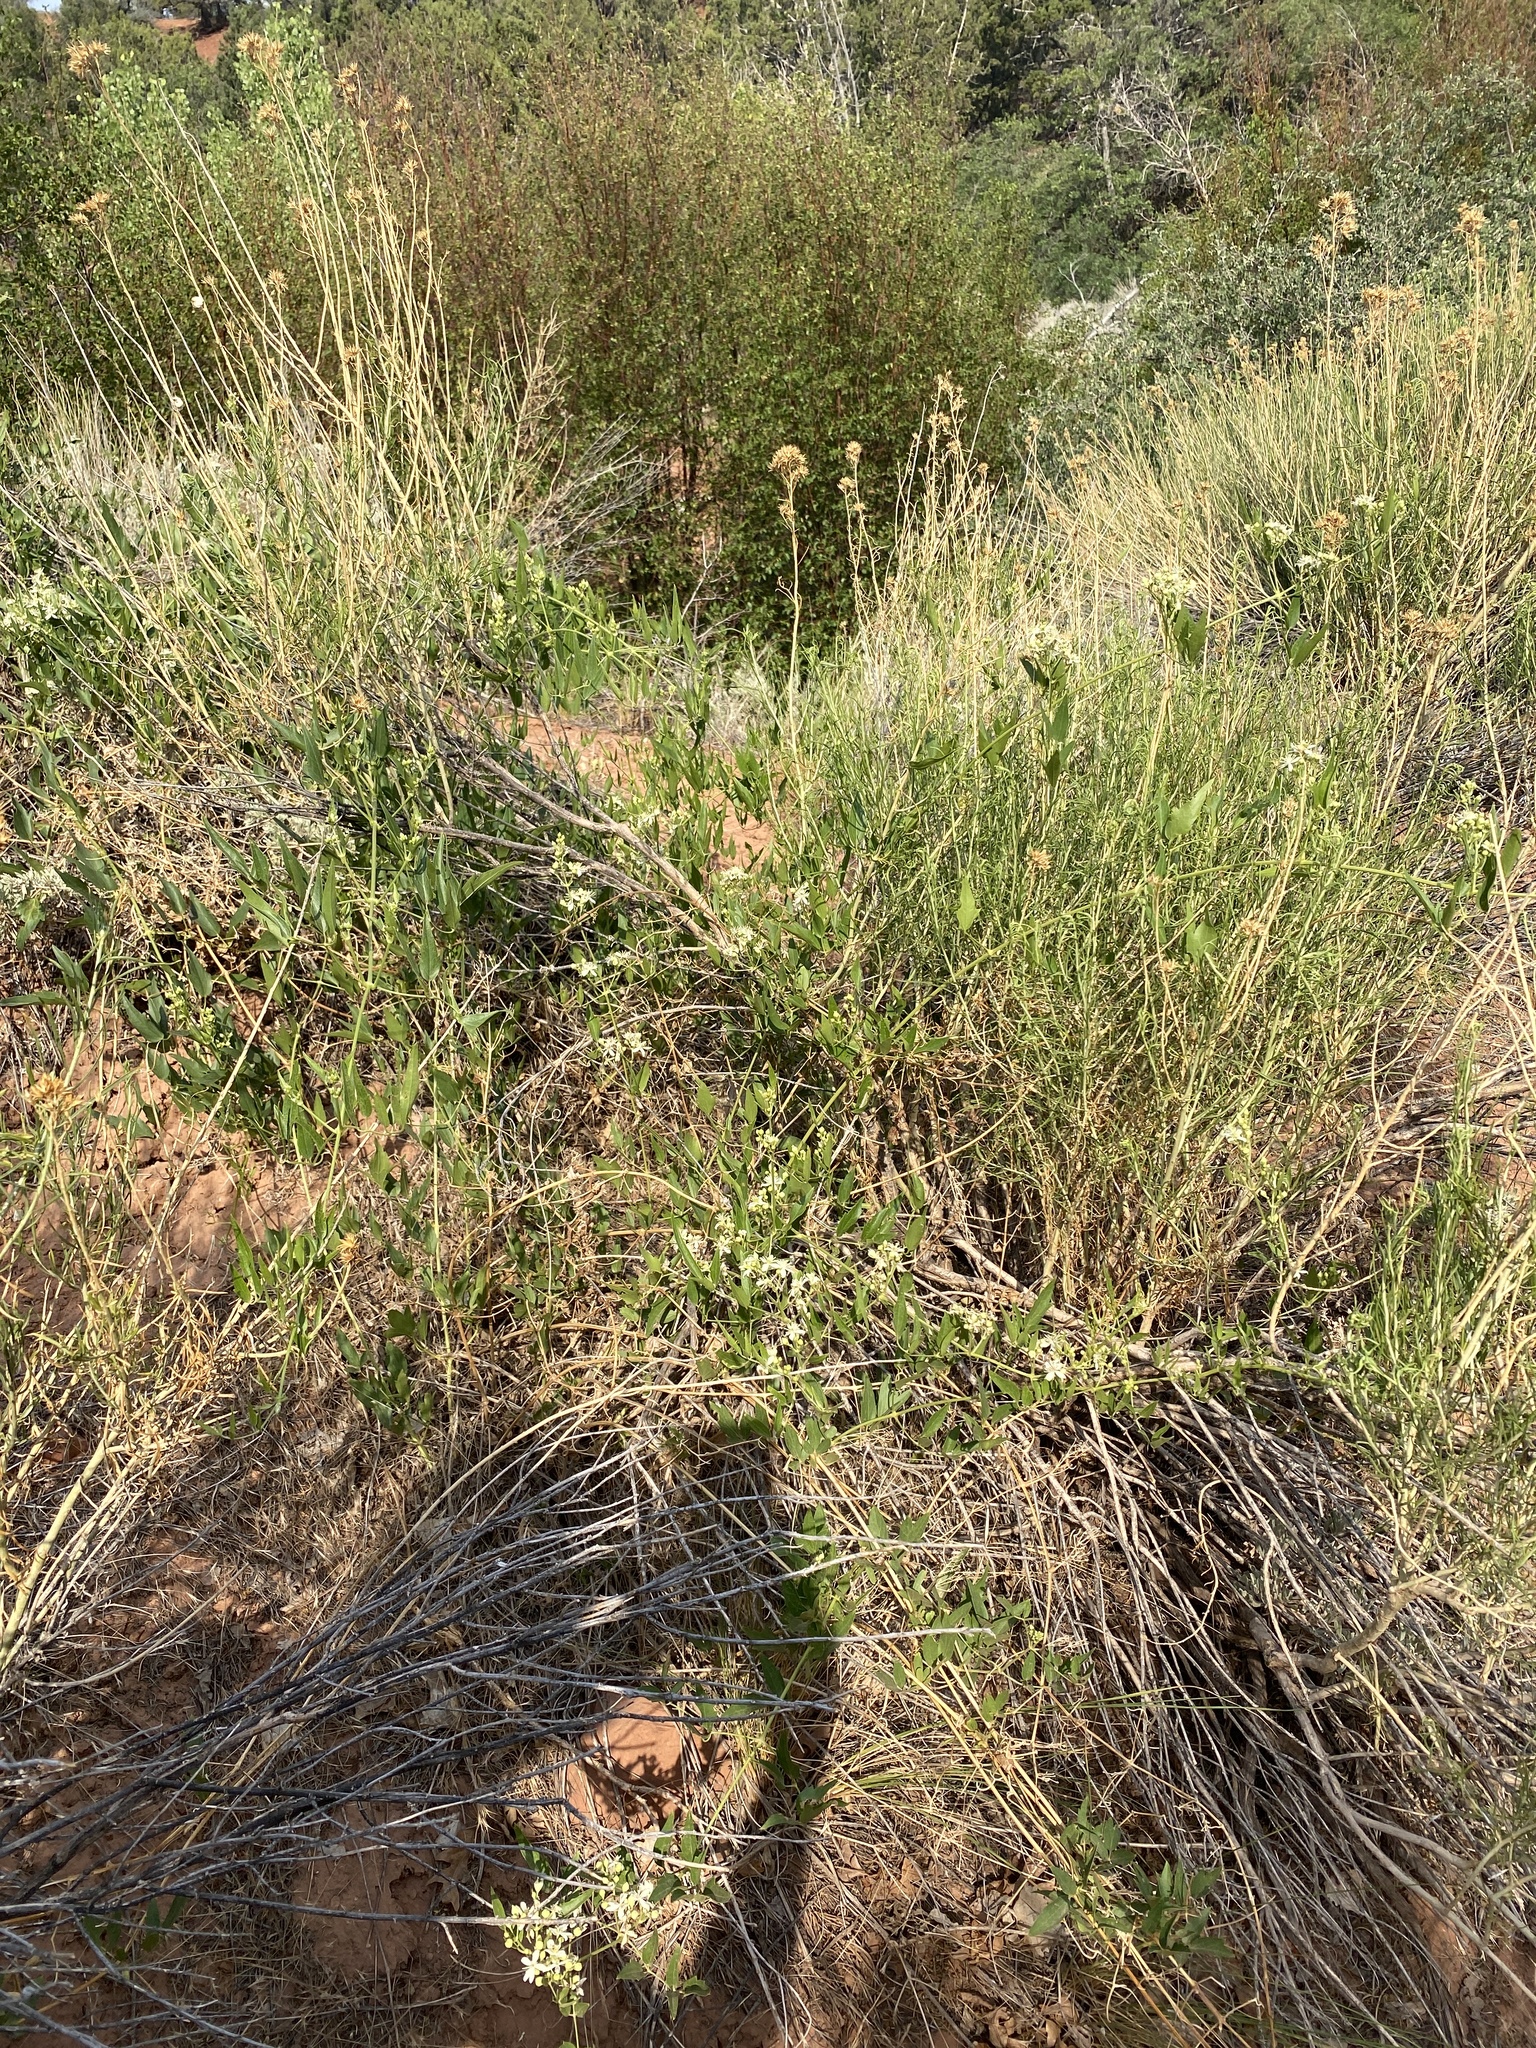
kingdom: Plantae
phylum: Tracheophyta
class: Magnoliopsida
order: Ranunculales
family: Ranunculaceae
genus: Clematis
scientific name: Clematis ligusticifolia
